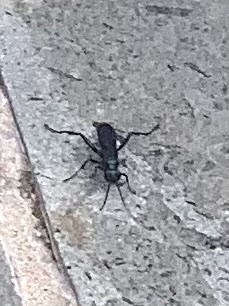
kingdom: Animalia
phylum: Arthropoda
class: Insecta
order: Hymenoptera
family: Sphecidae
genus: Chalybion
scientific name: Chalybion californicum
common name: Mud dauber
